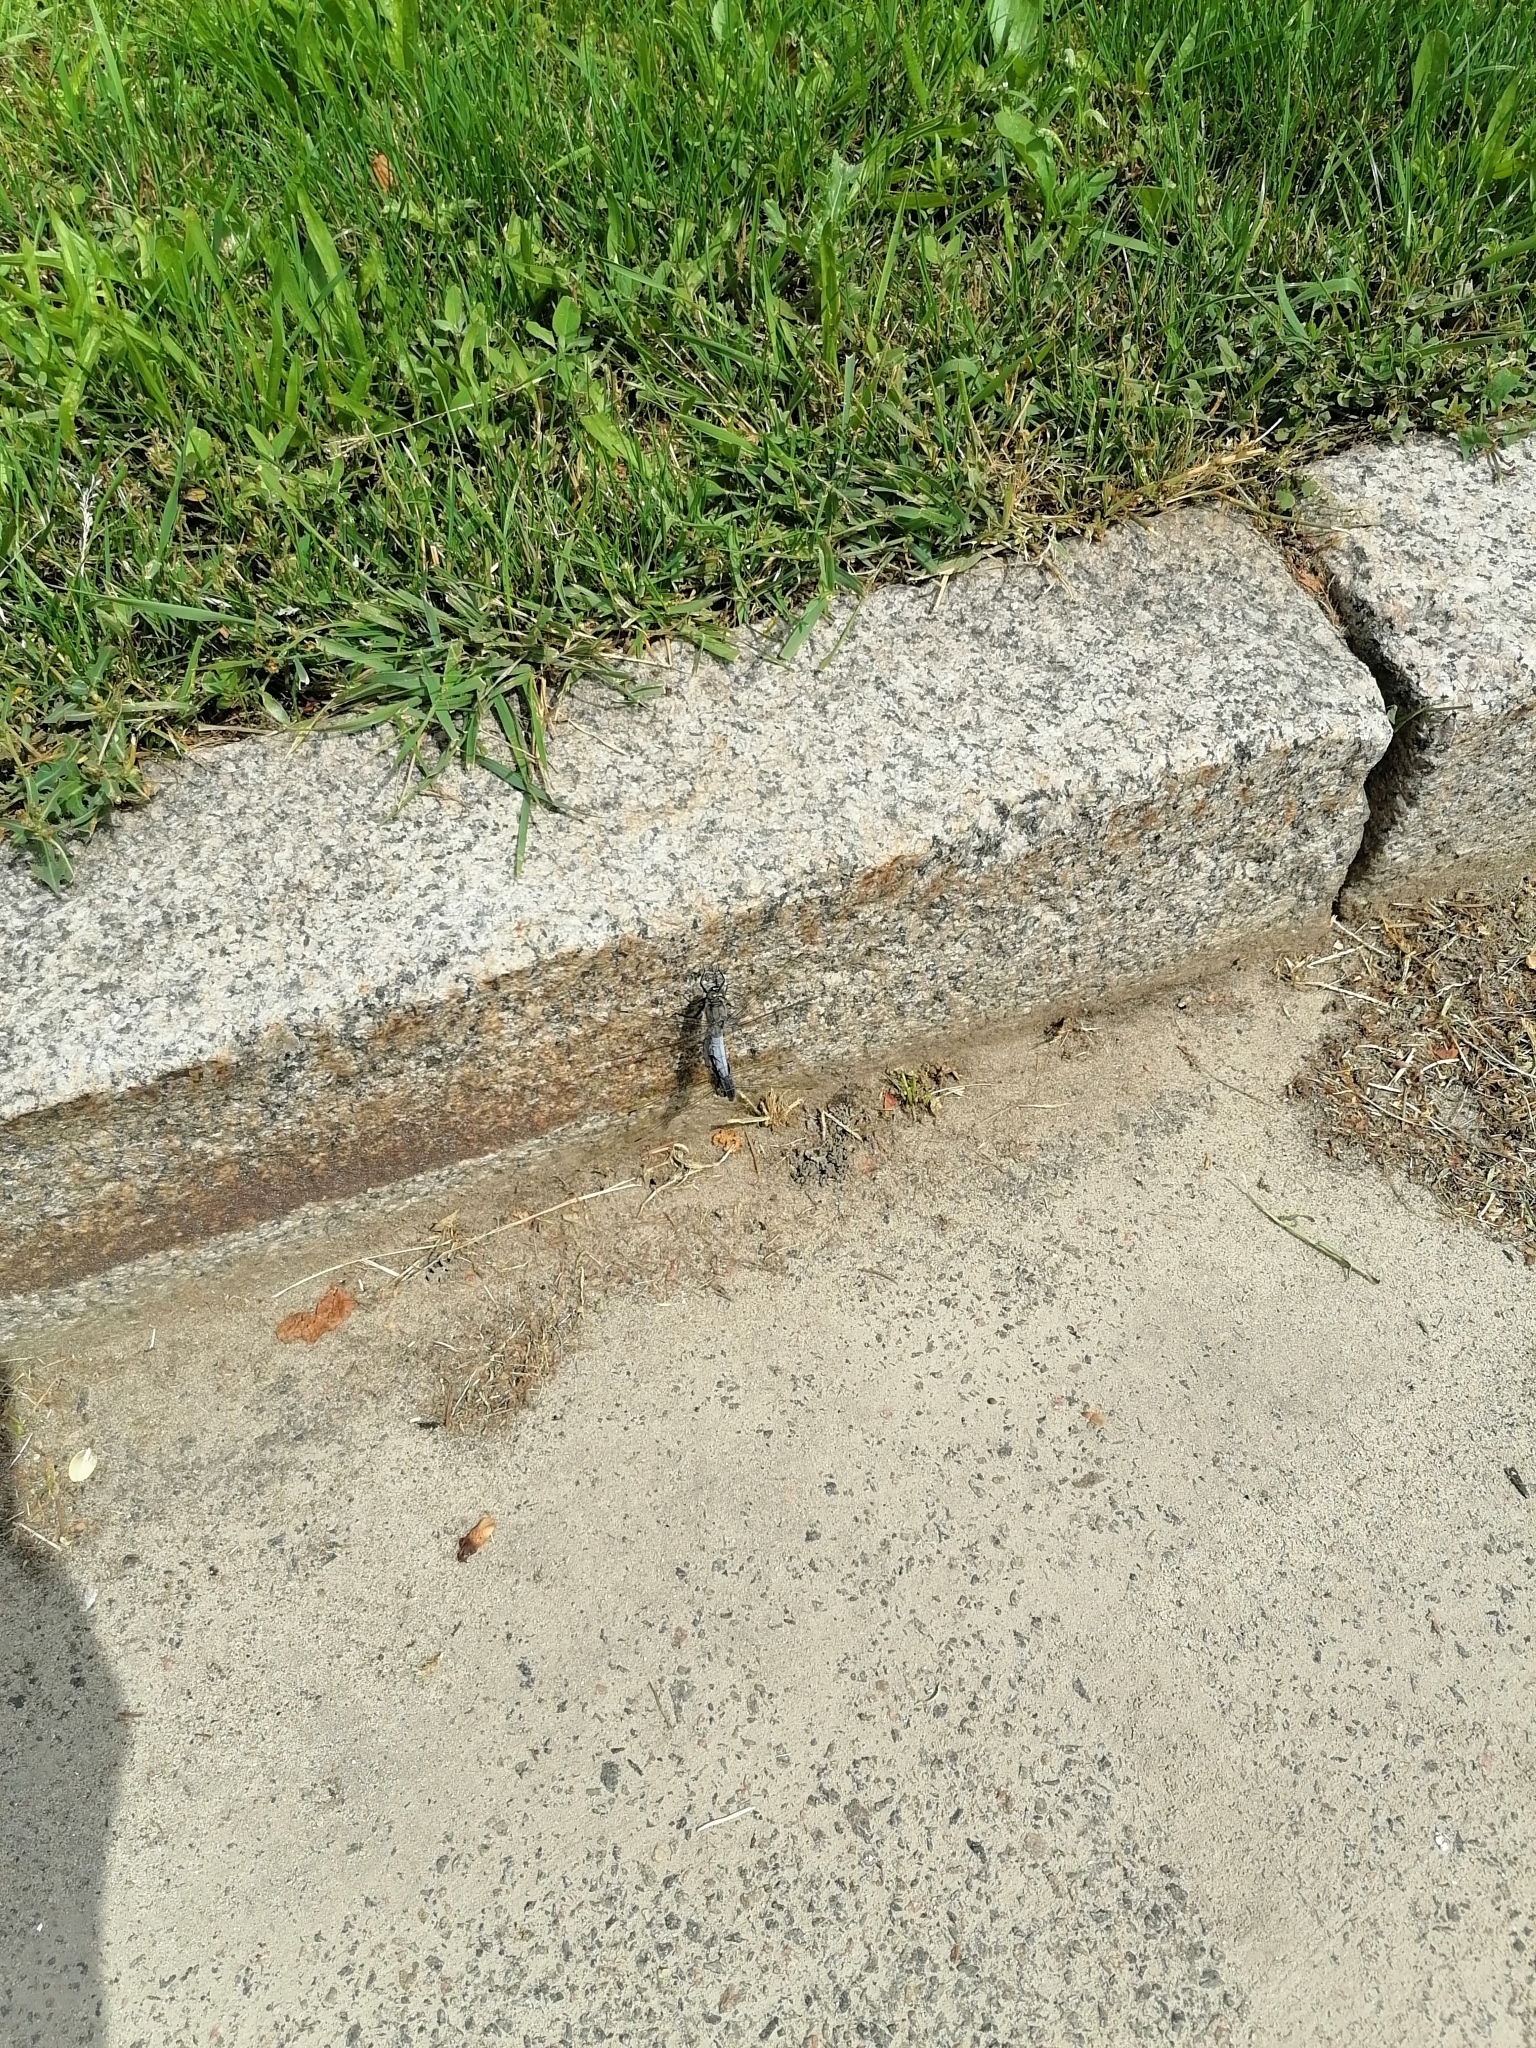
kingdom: Animalia
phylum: Arthropoda
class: Insecta
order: Odonata
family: Libellulidae
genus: Orthetrum
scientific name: Orthetrum cancellatum
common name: Black-tailed skimmer
